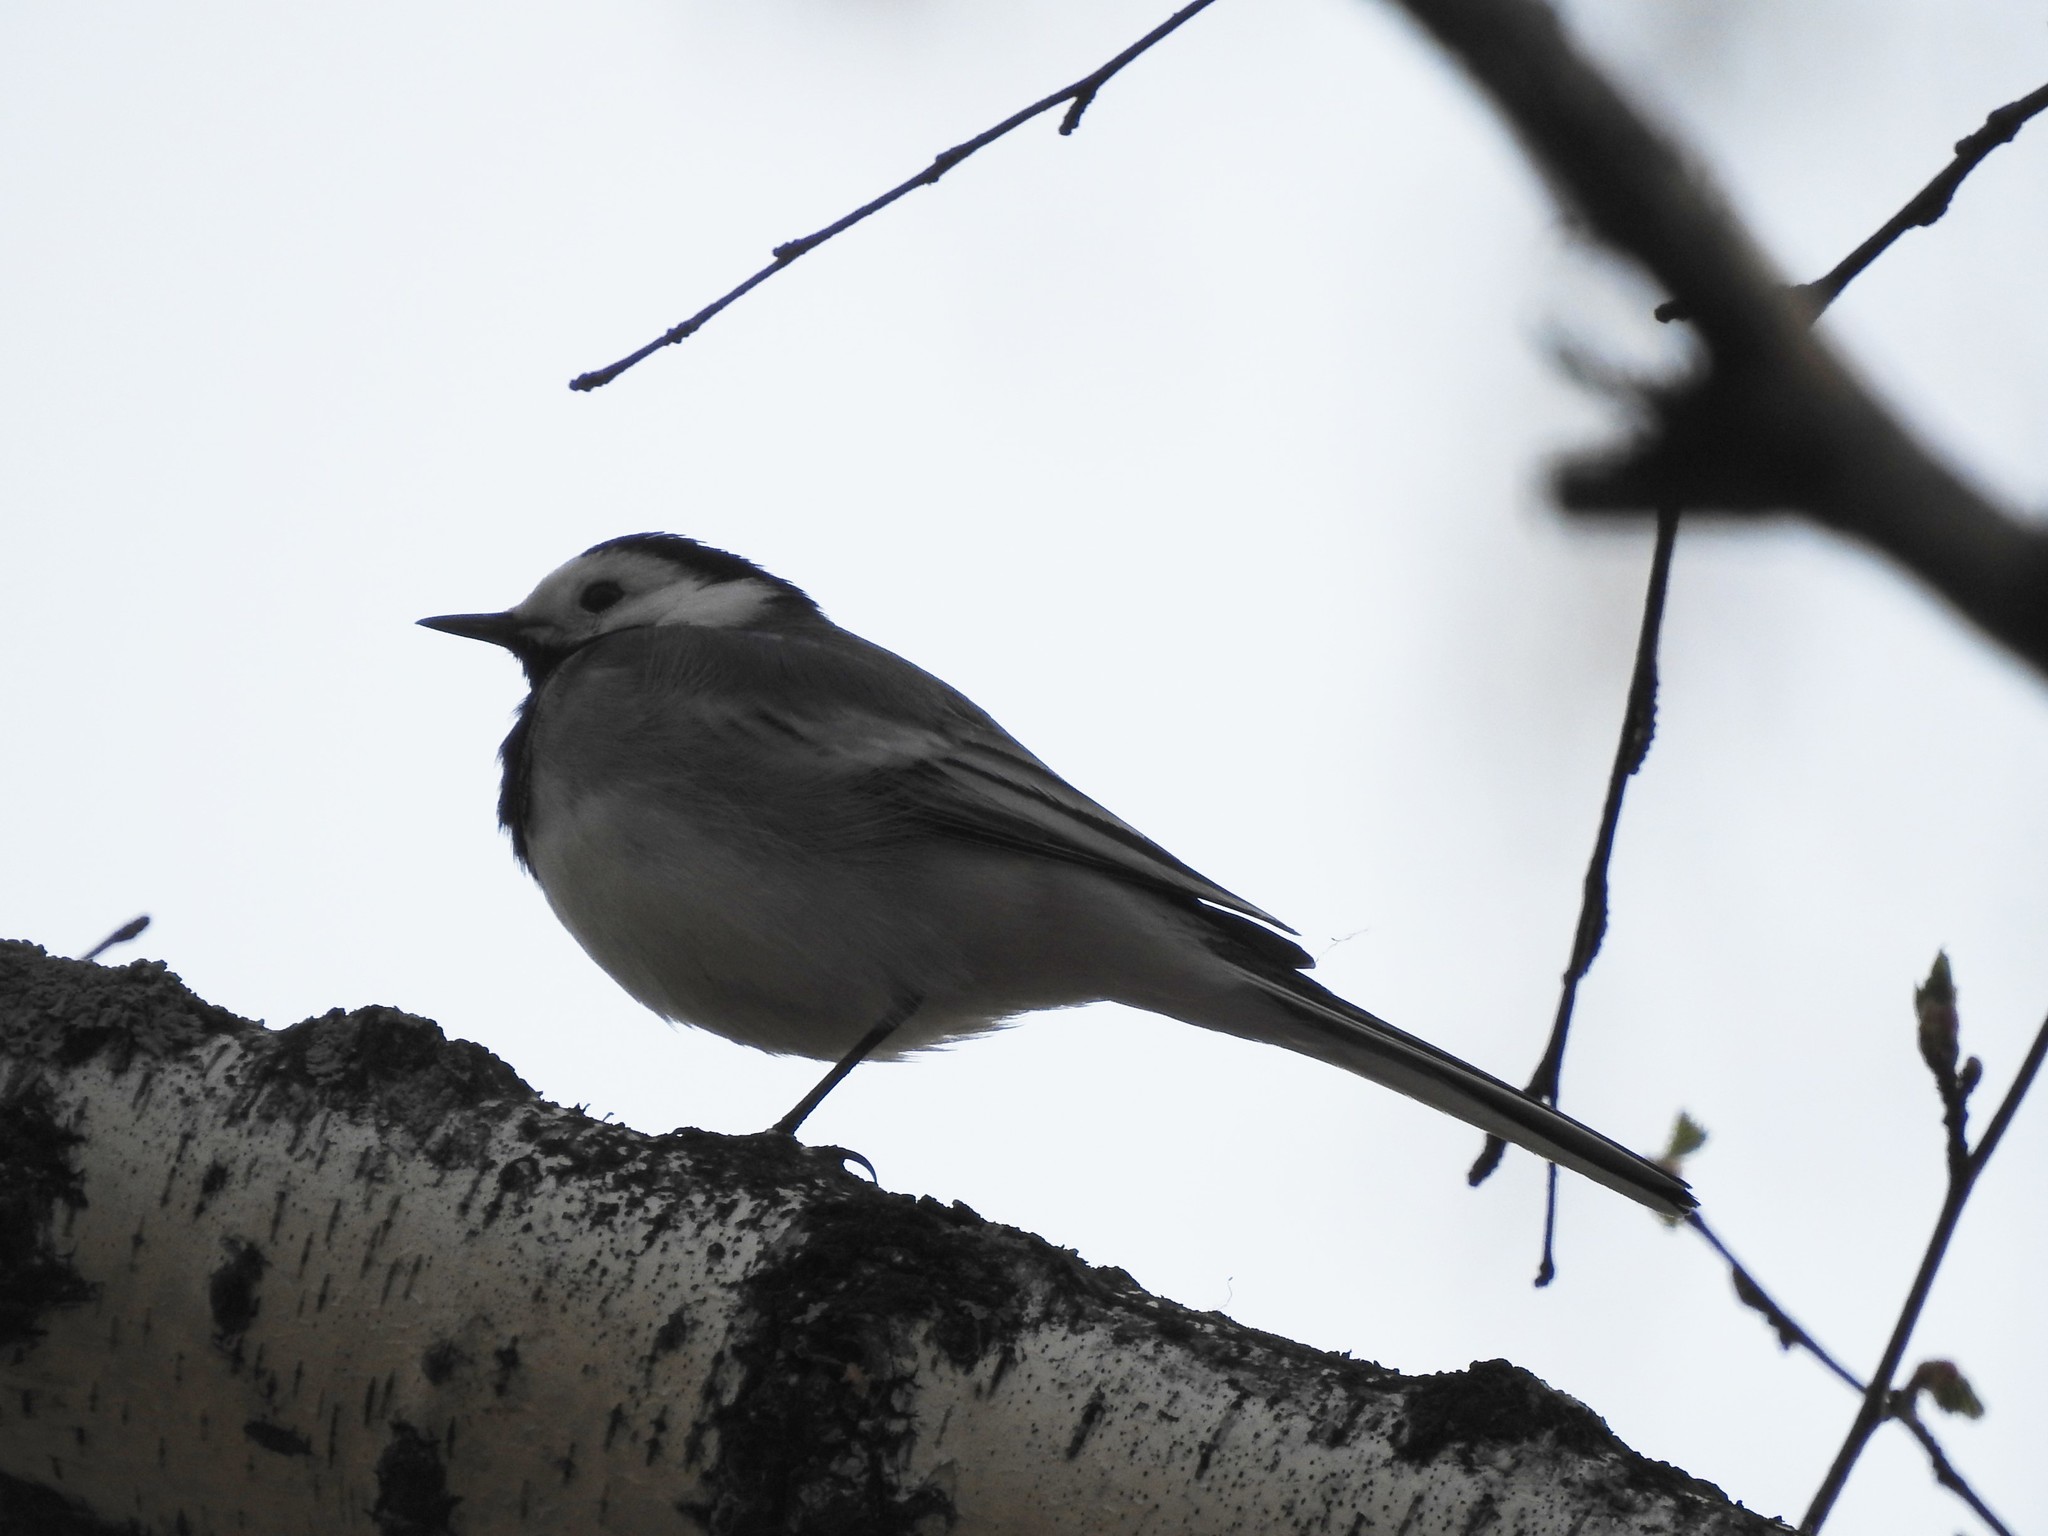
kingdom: Animalia
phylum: Chordata
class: Aves
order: Passeriformes
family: Motacillidae
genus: Motacilla
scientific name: Motacilla alba
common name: White wagtail
